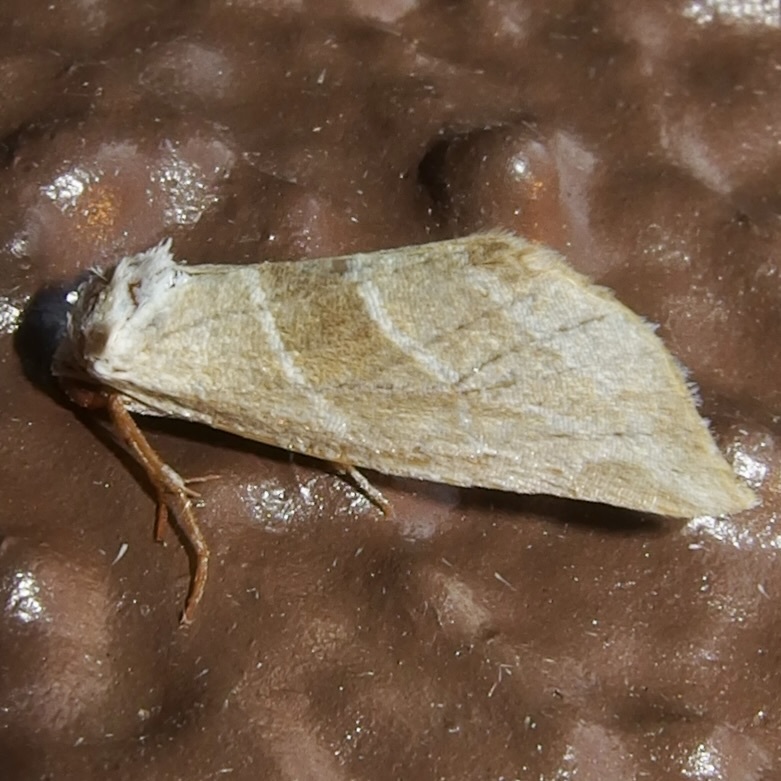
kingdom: Animalia
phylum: Arthropoda
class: Insecta
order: Lepidoptera
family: Noctuidae
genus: Plagiomimicus
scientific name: Plagiomimicus mimica
